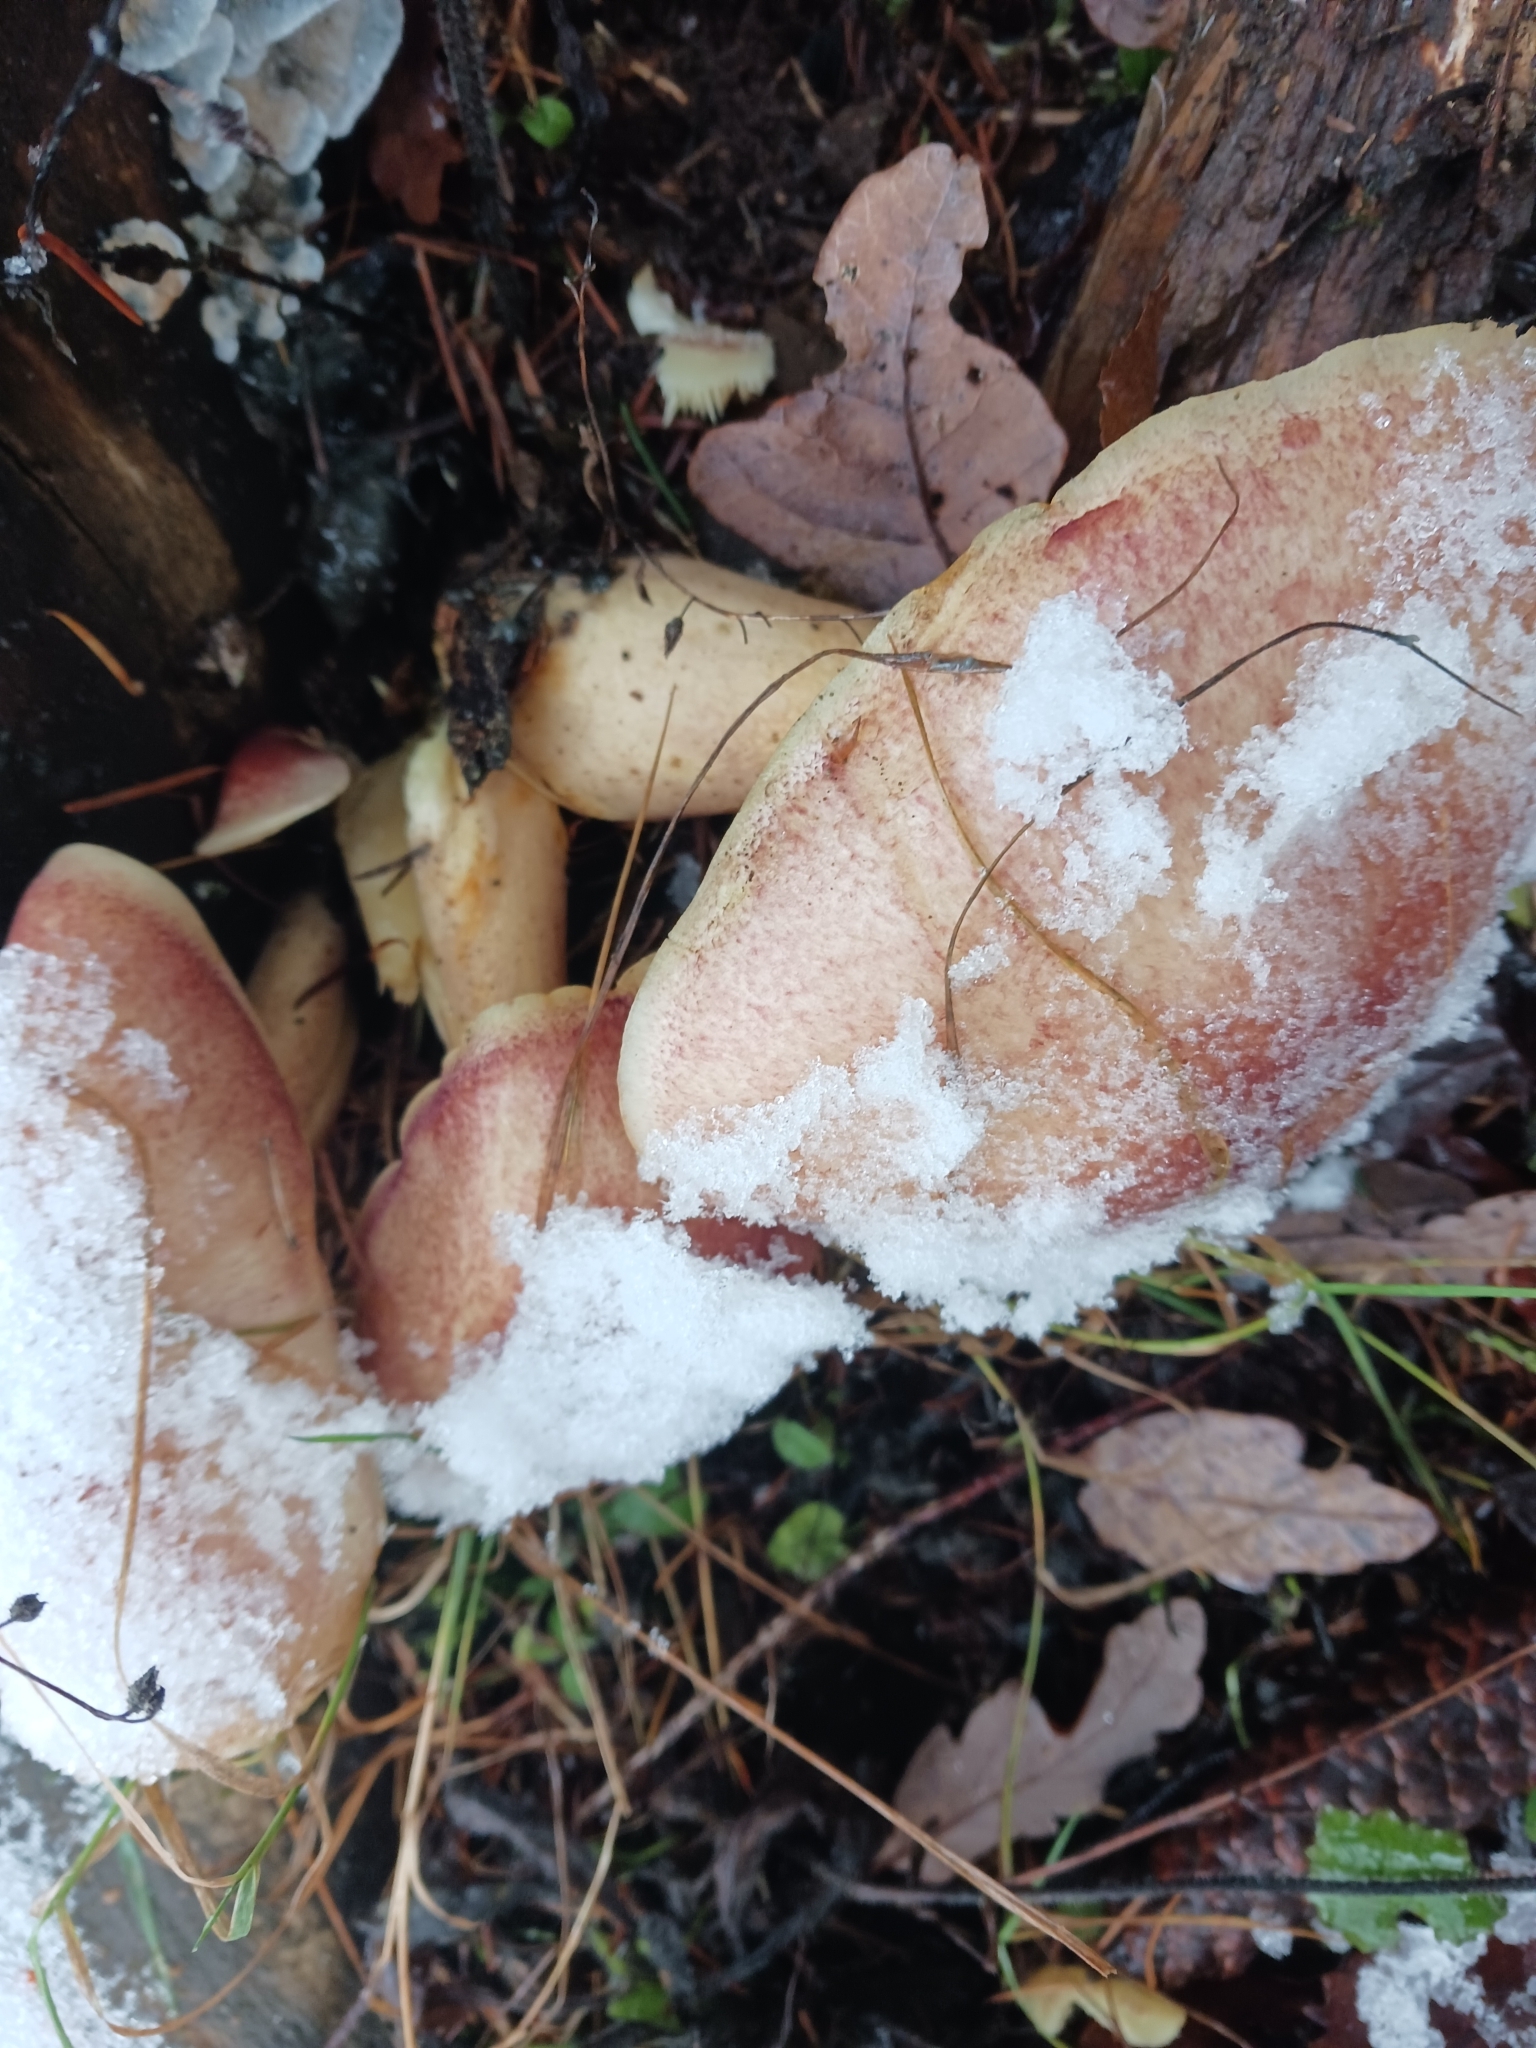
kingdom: Fungi
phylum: Basidiomycota
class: Agaricomycetes
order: Agaricales
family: Tricholomataceae
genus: Tricholomopsis
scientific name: Tricholomopsis rutilans
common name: Plums and custard
